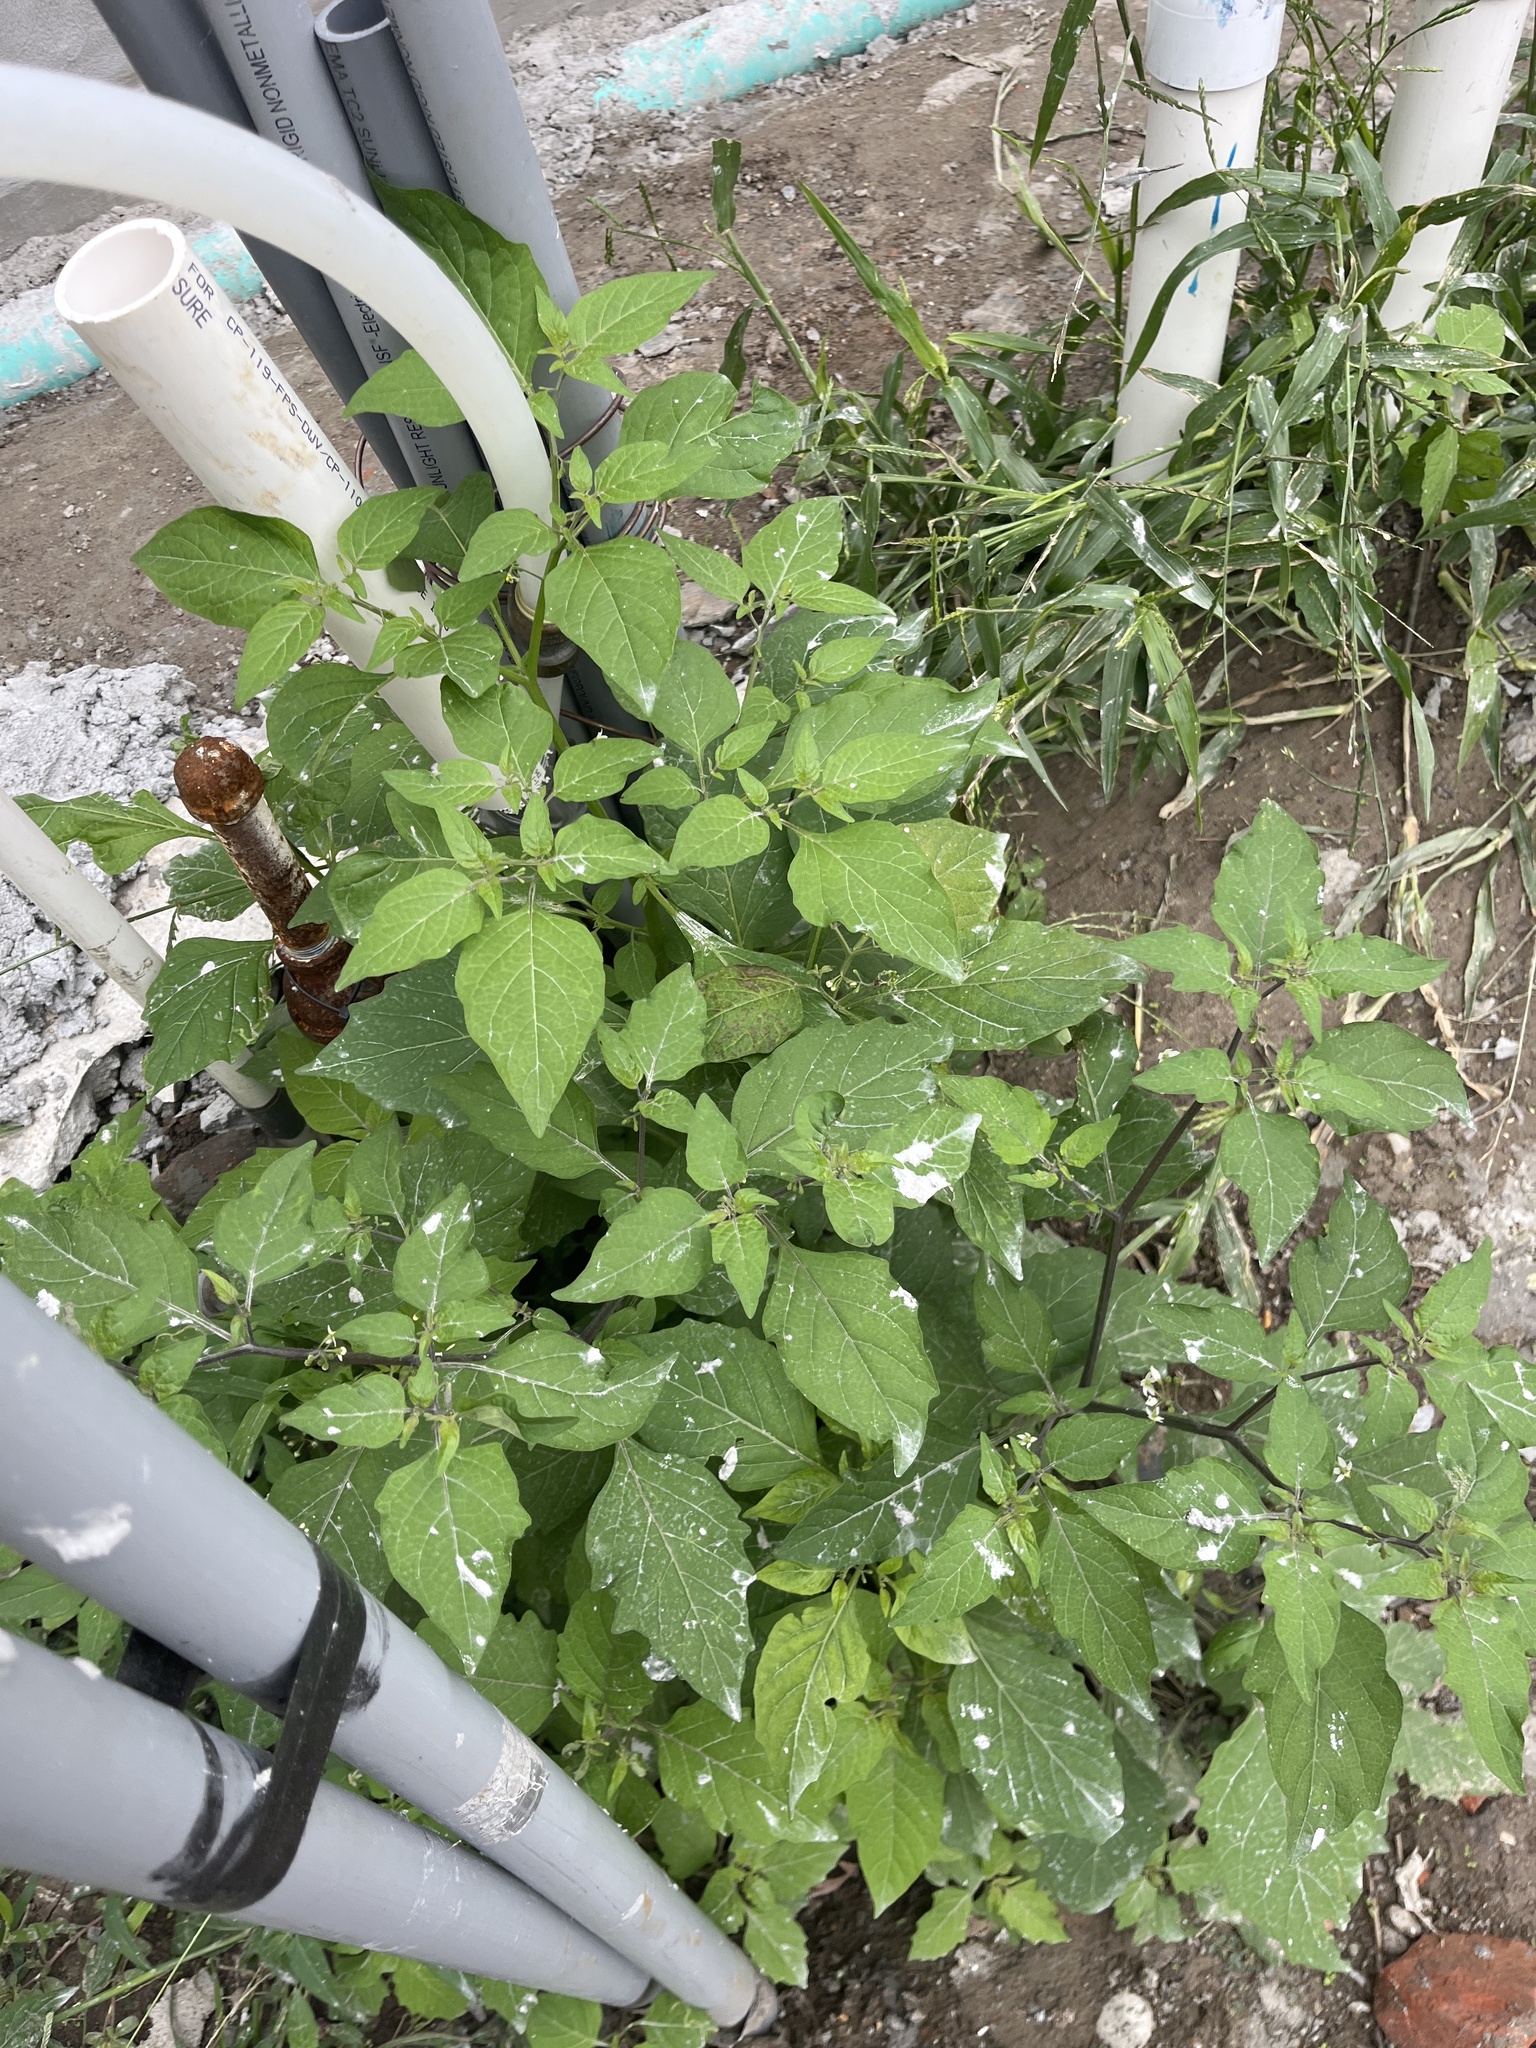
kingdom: Plantae
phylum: Tracheophyta
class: Magnoliopsida
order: Solanales
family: Solanaceae
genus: Solanum
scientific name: Solanum americanum
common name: American black nightshade
